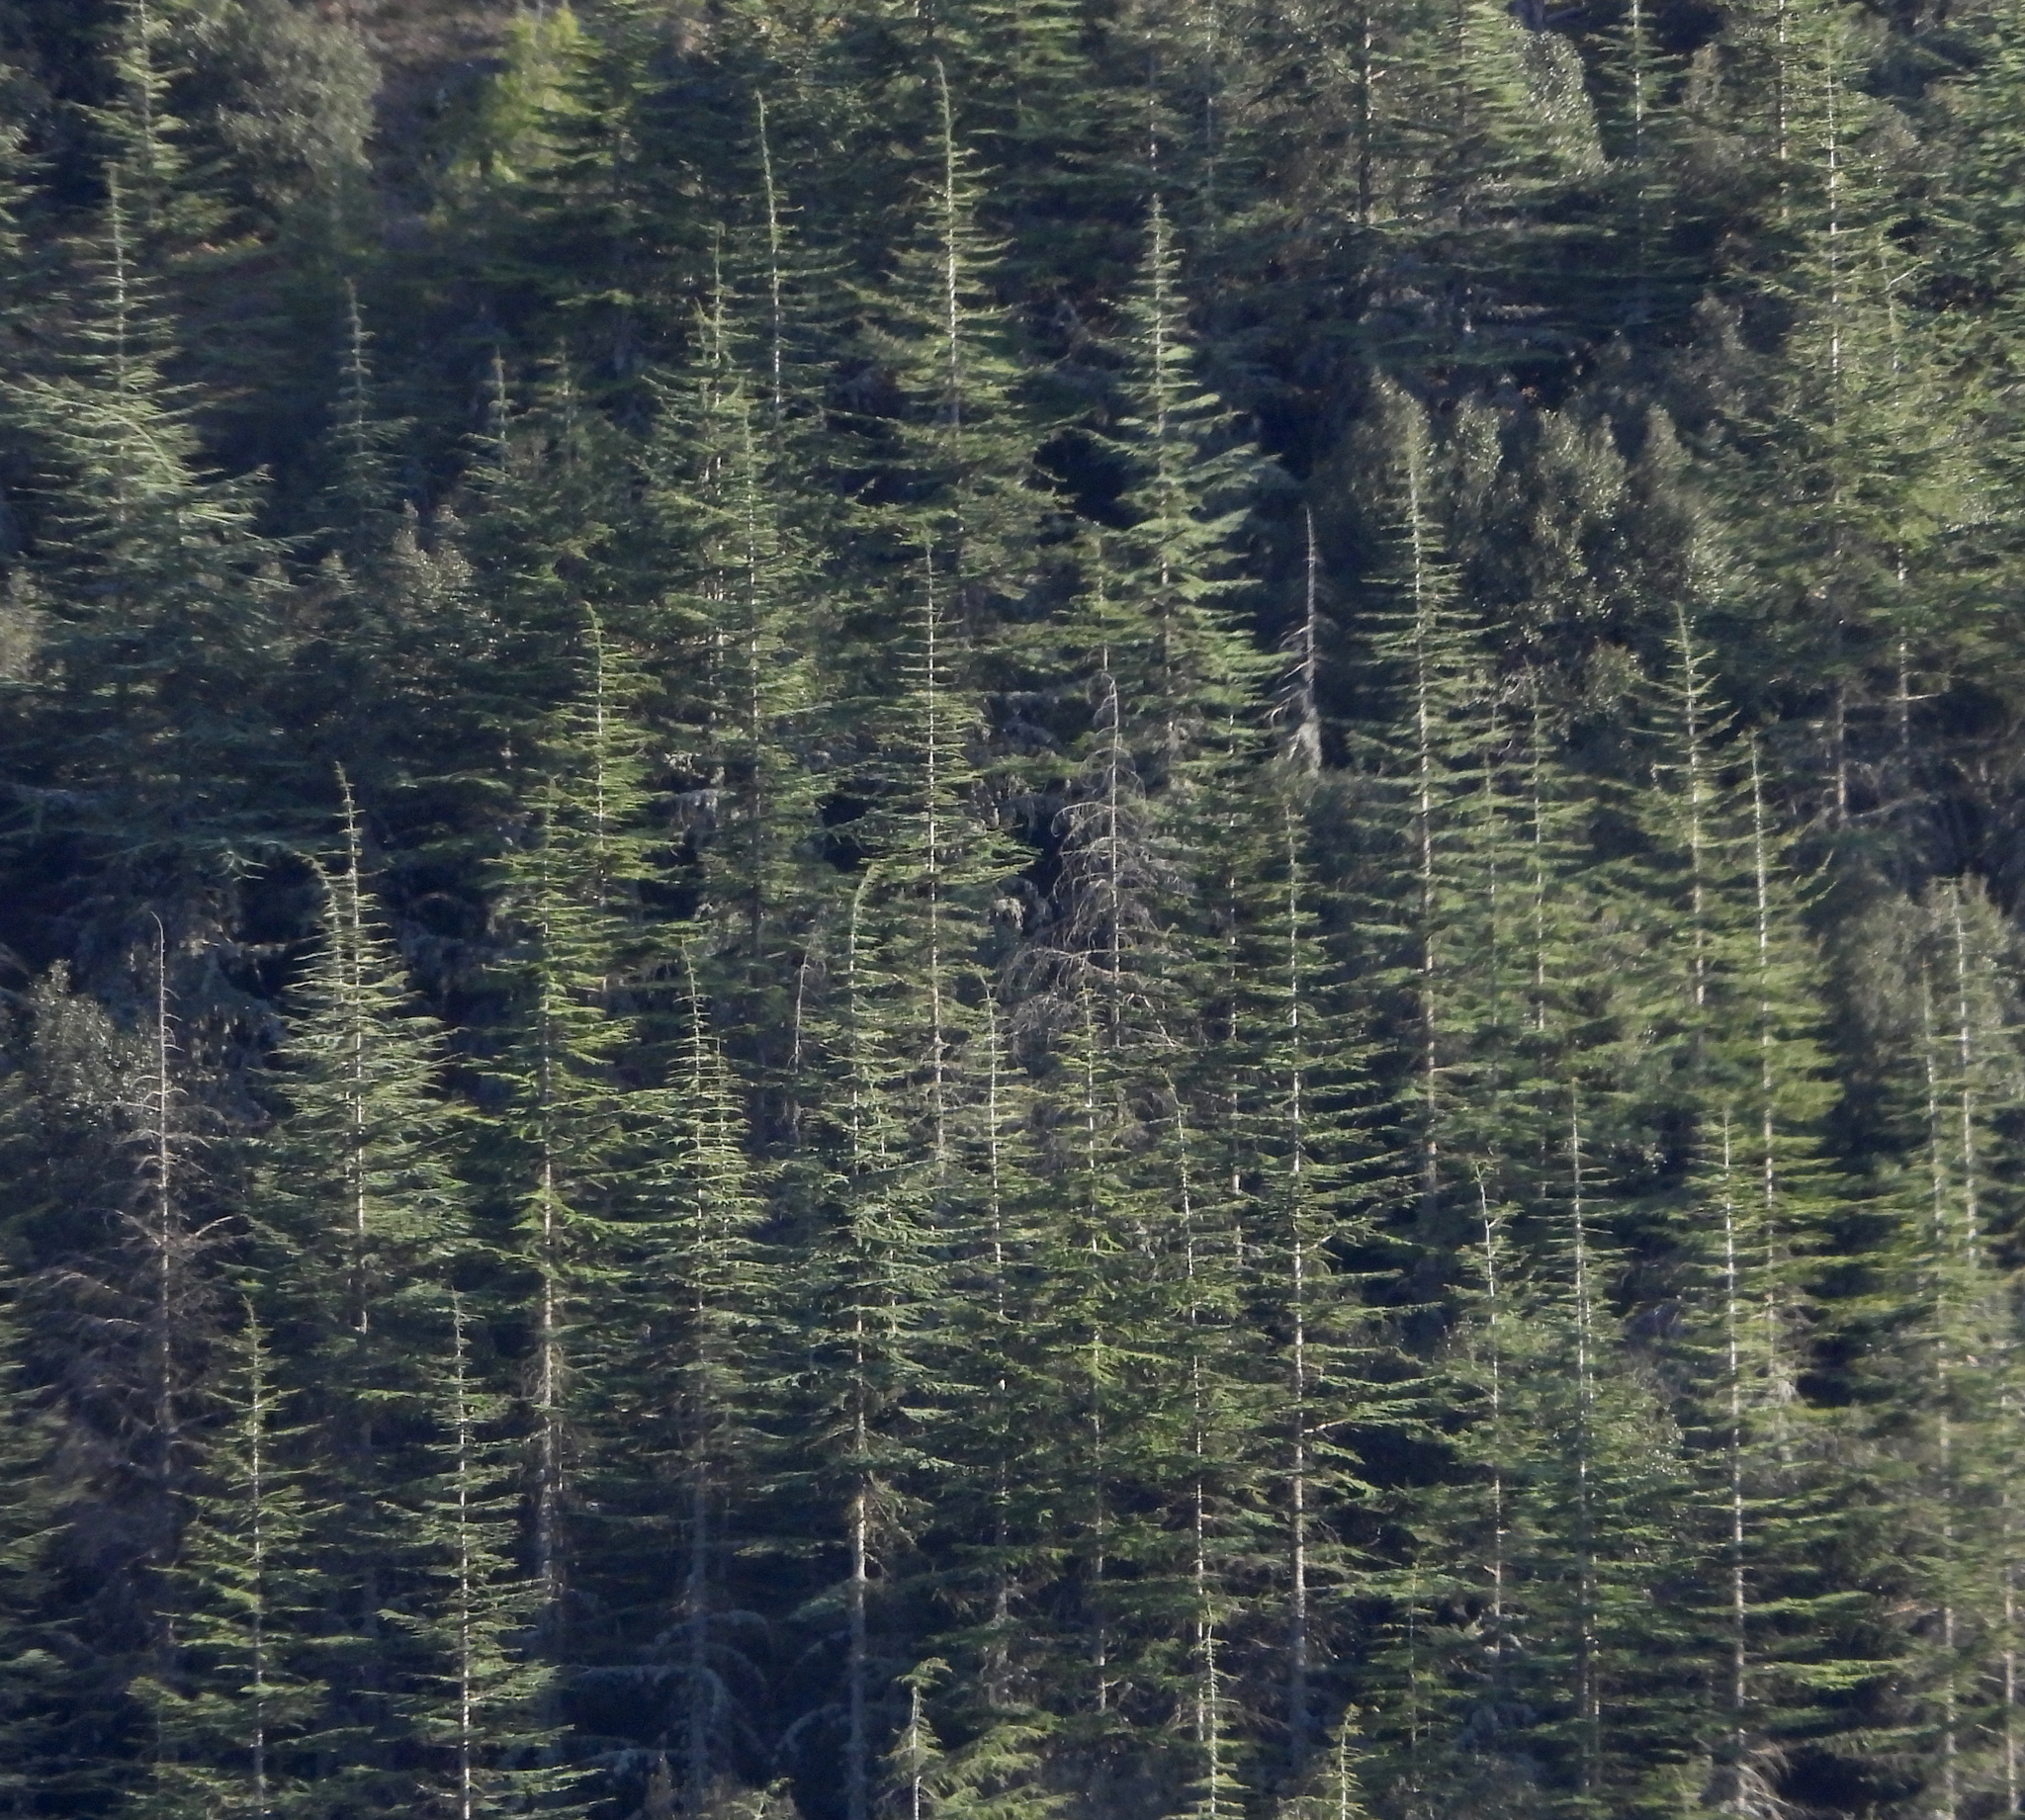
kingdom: Plantae
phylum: Tracheophyta
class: Pinopsida
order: Pinales
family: Pinaceae
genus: Cedrus
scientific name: Cedrus brevifolia
